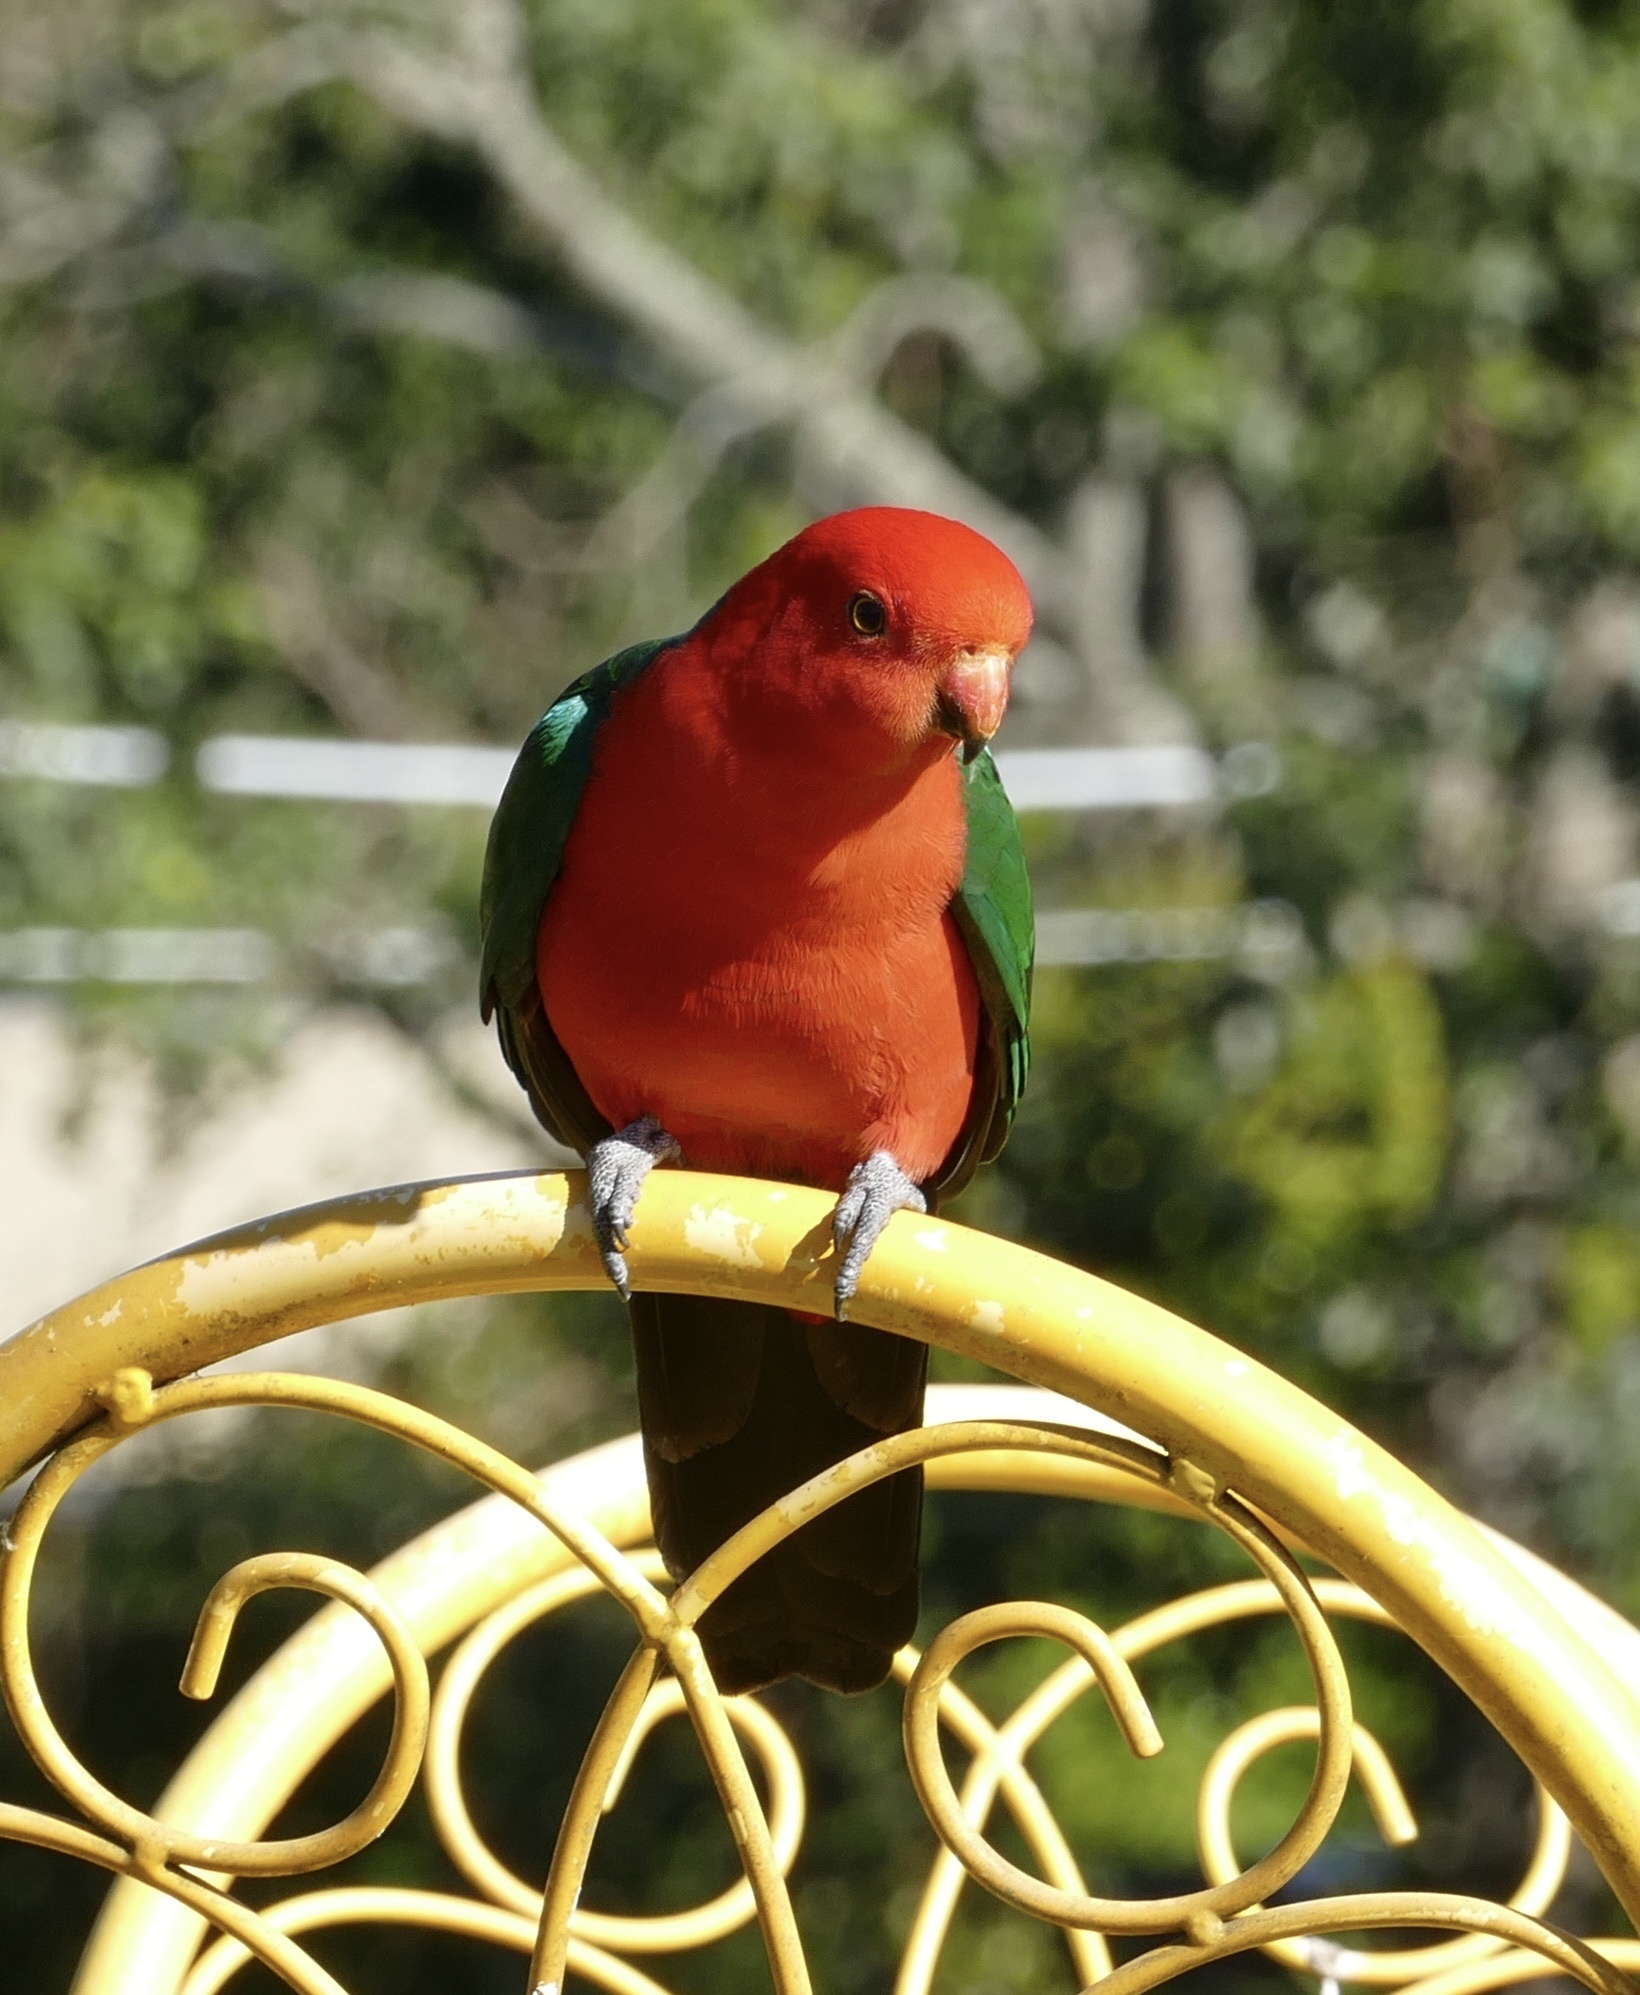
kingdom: Animalia
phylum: Chordata
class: Aves
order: Psittaciformes
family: Psittacidae
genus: Alisterus
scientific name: Alisterus scapularis
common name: Australian king parrot
